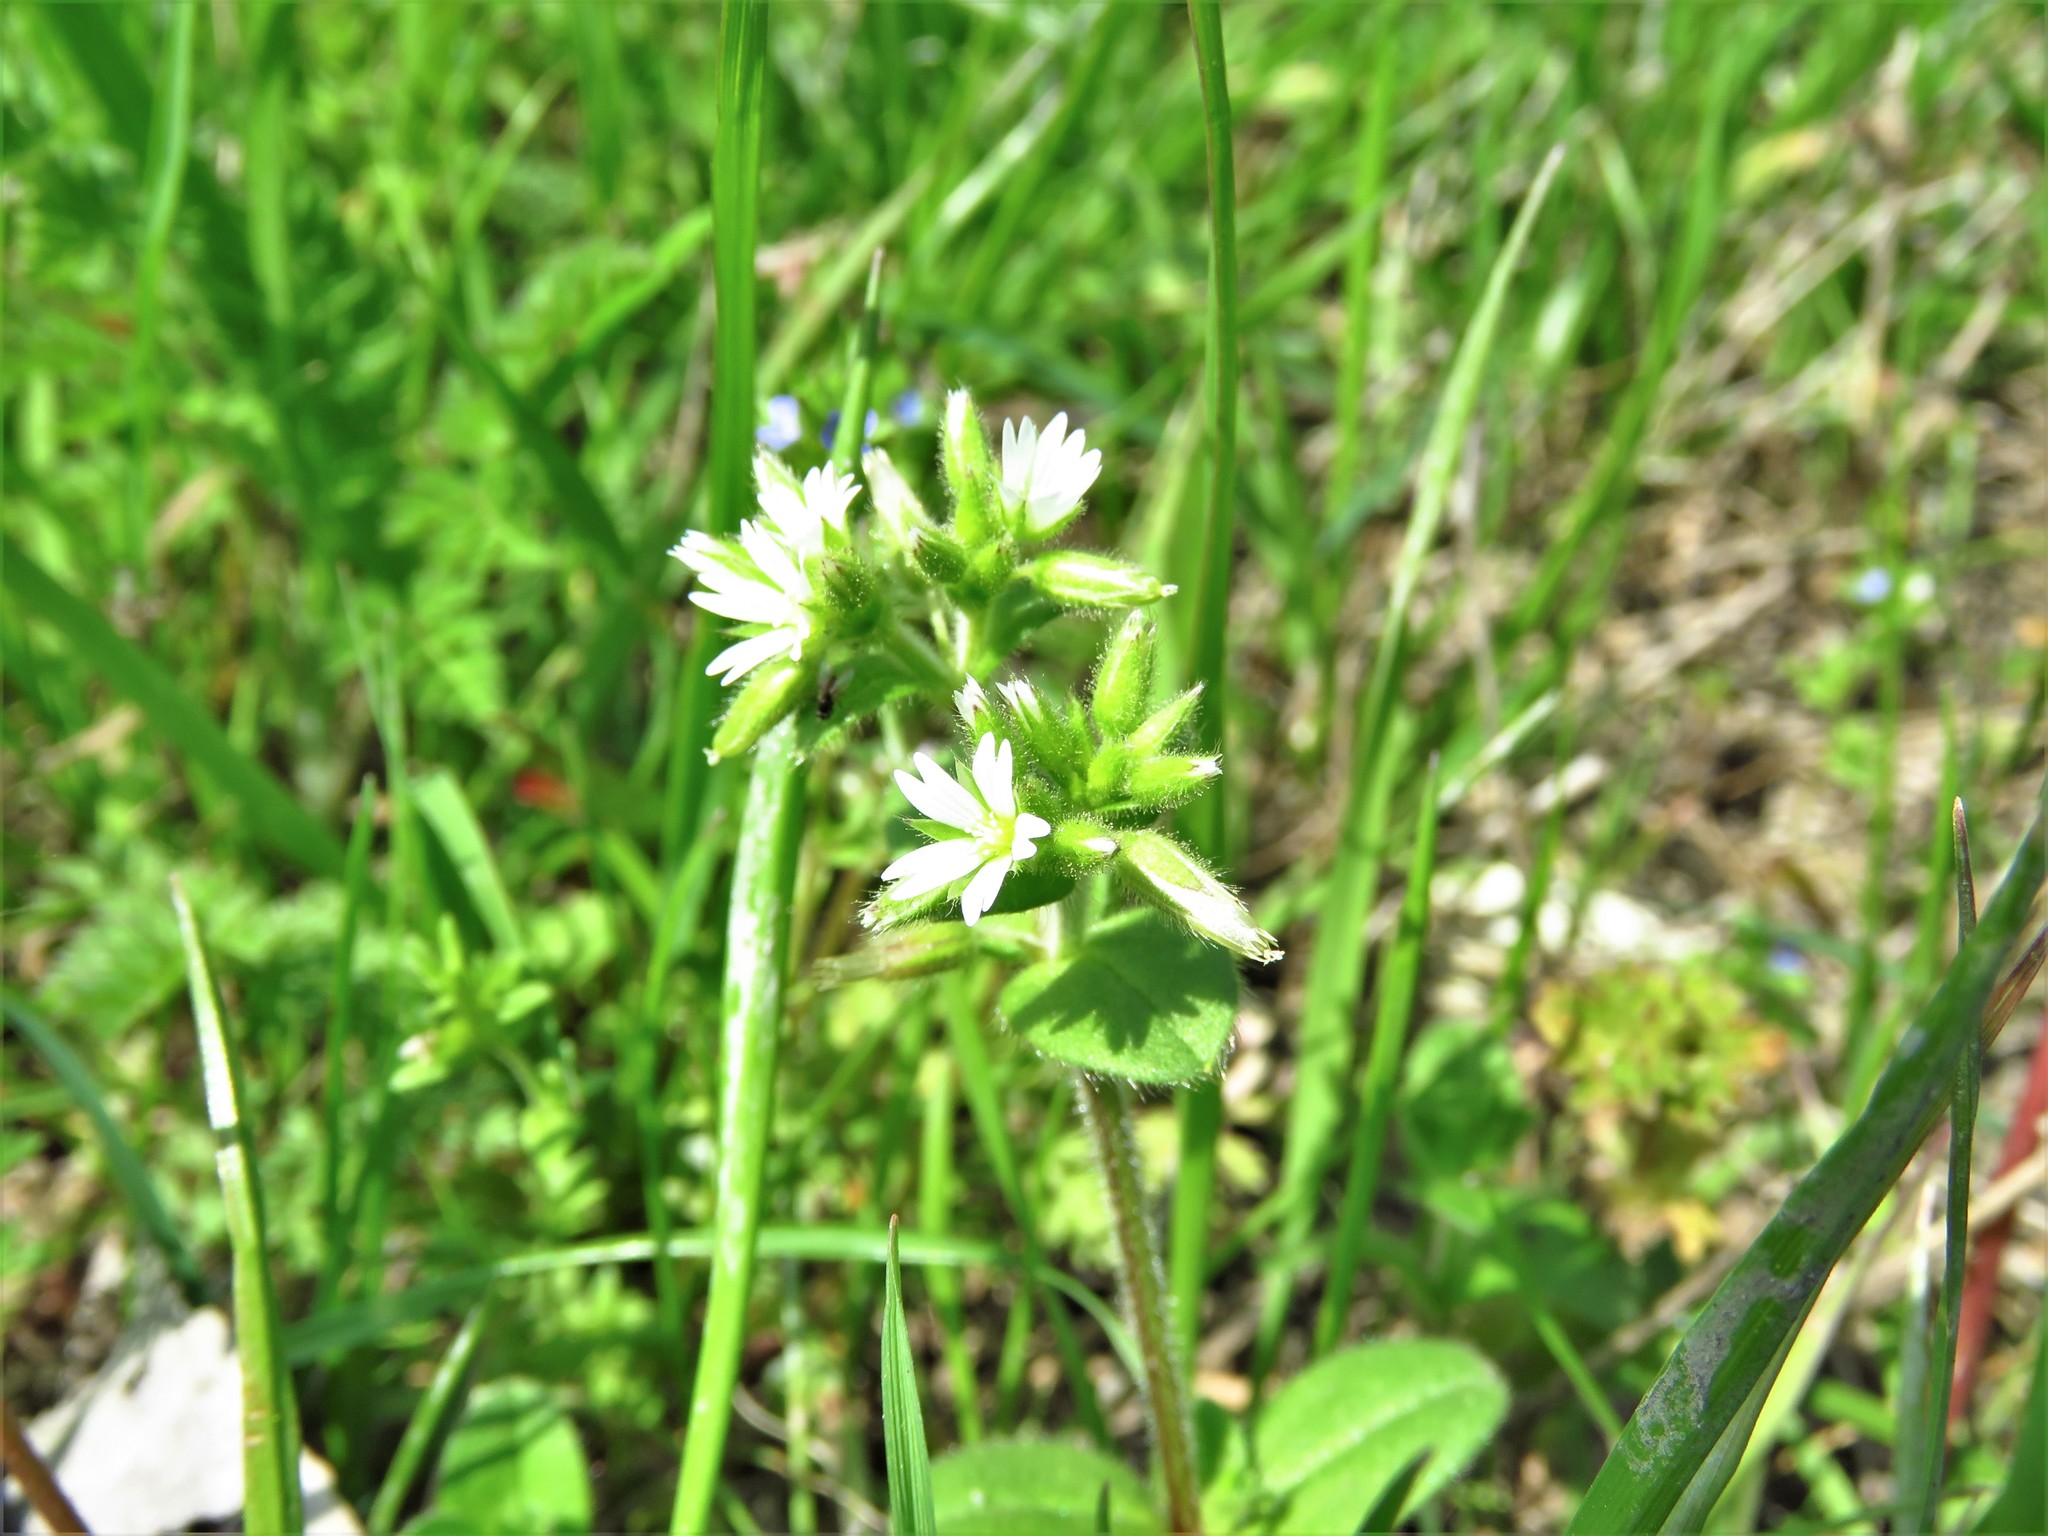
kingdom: Plantae
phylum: Tracheophyta
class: Magnoliopsida
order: Caryophyllales
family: Caryophyllaceae
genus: Cerastium
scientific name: Cerastium glomeratum
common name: Sticky chickweed
